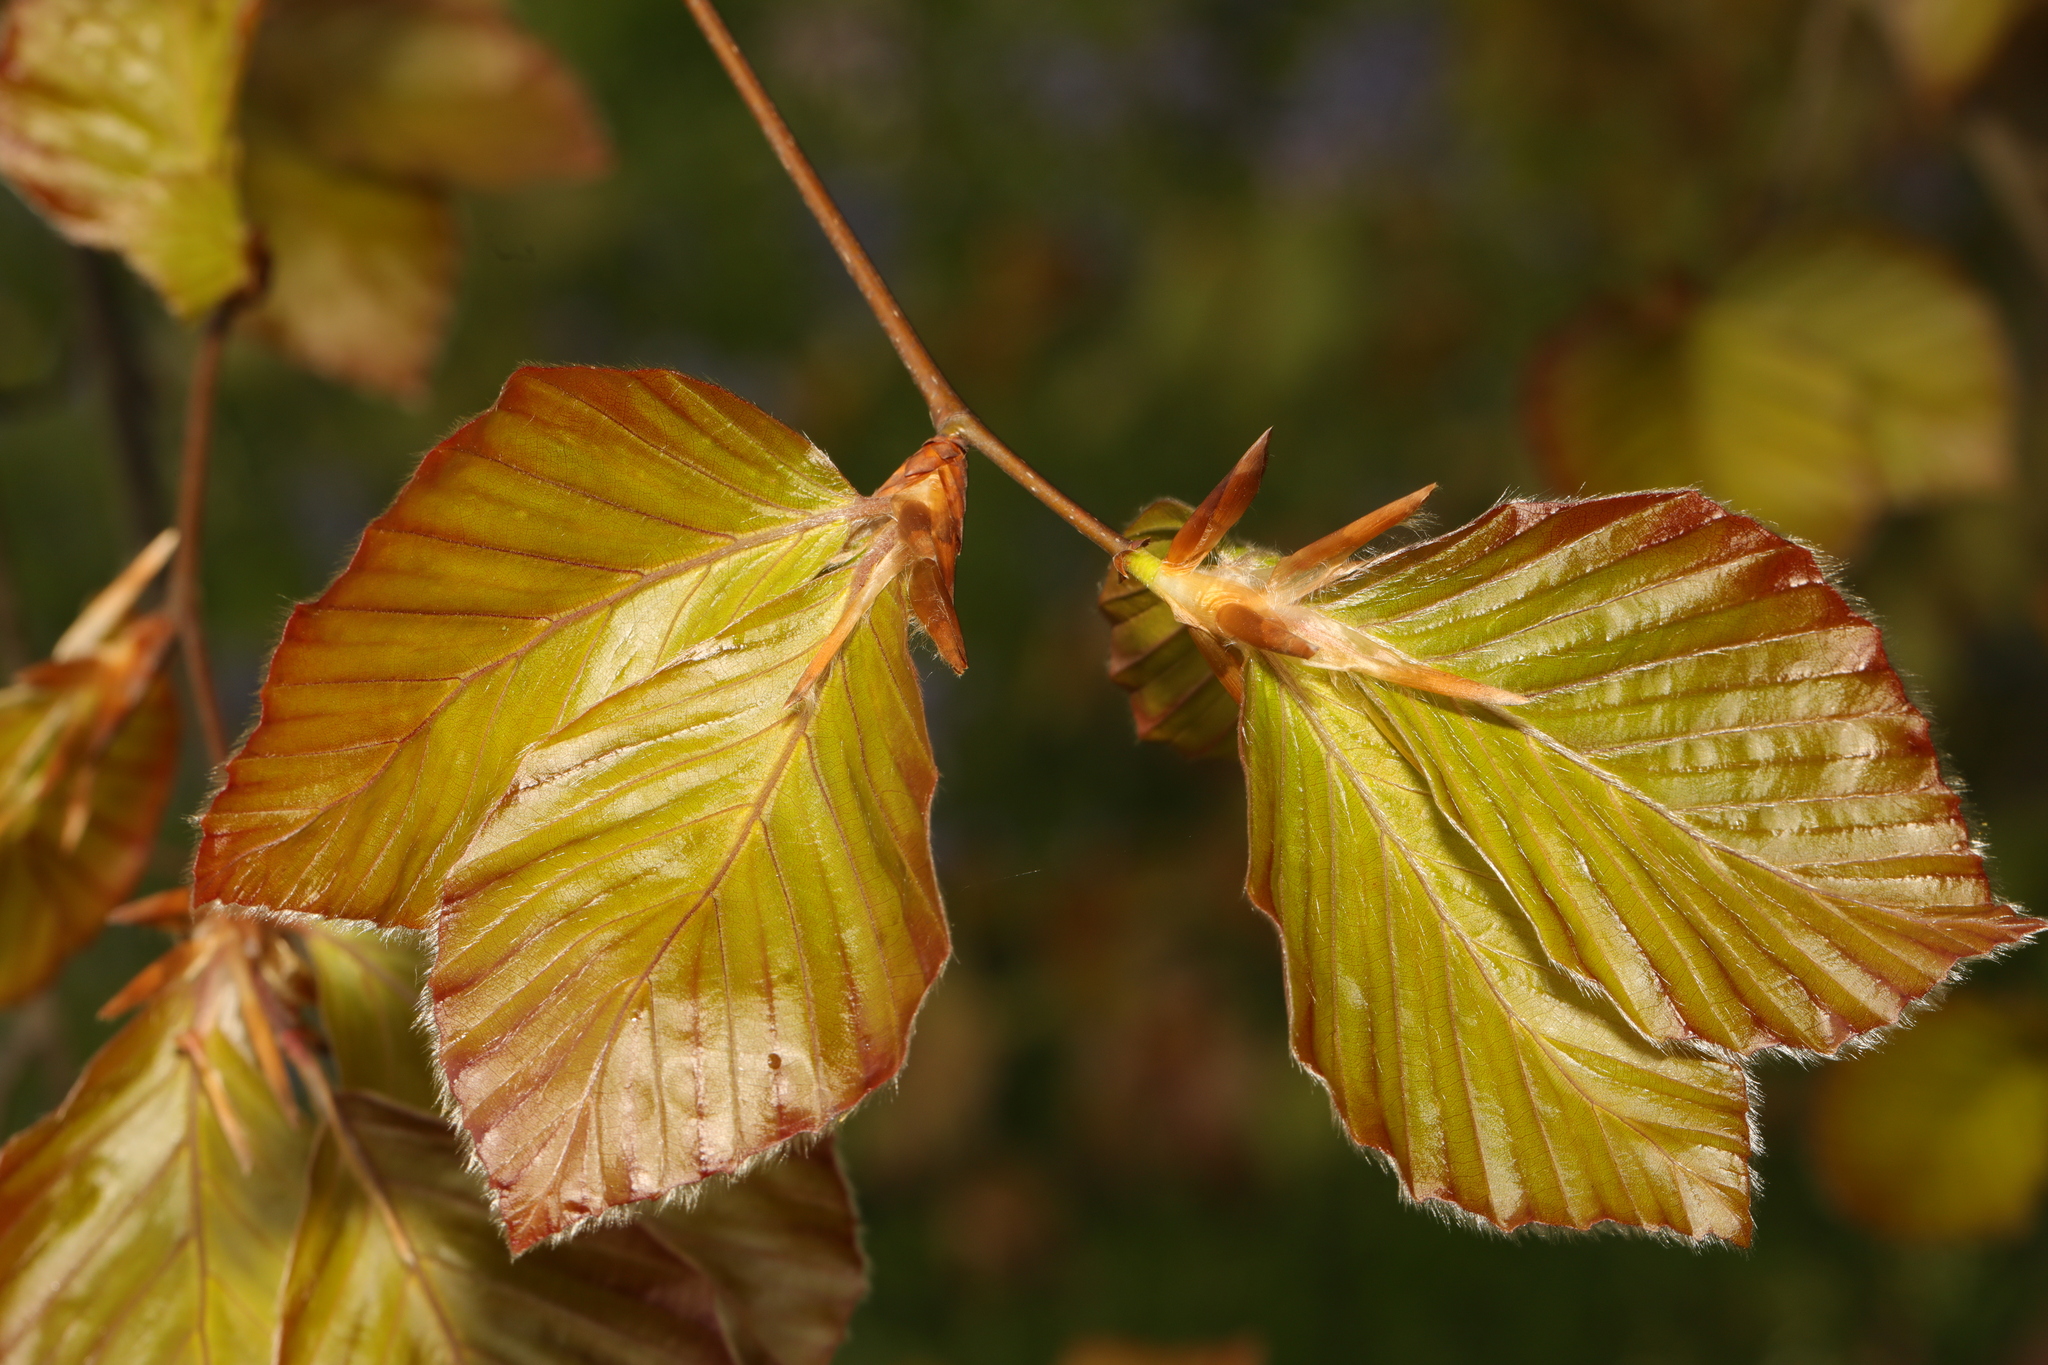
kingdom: Plantae
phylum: Tracheophyta
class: Magnoliopsida
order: Fagales
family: Fagaceae
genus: Fagus
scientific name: Fagus sylvatica
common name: Beech
